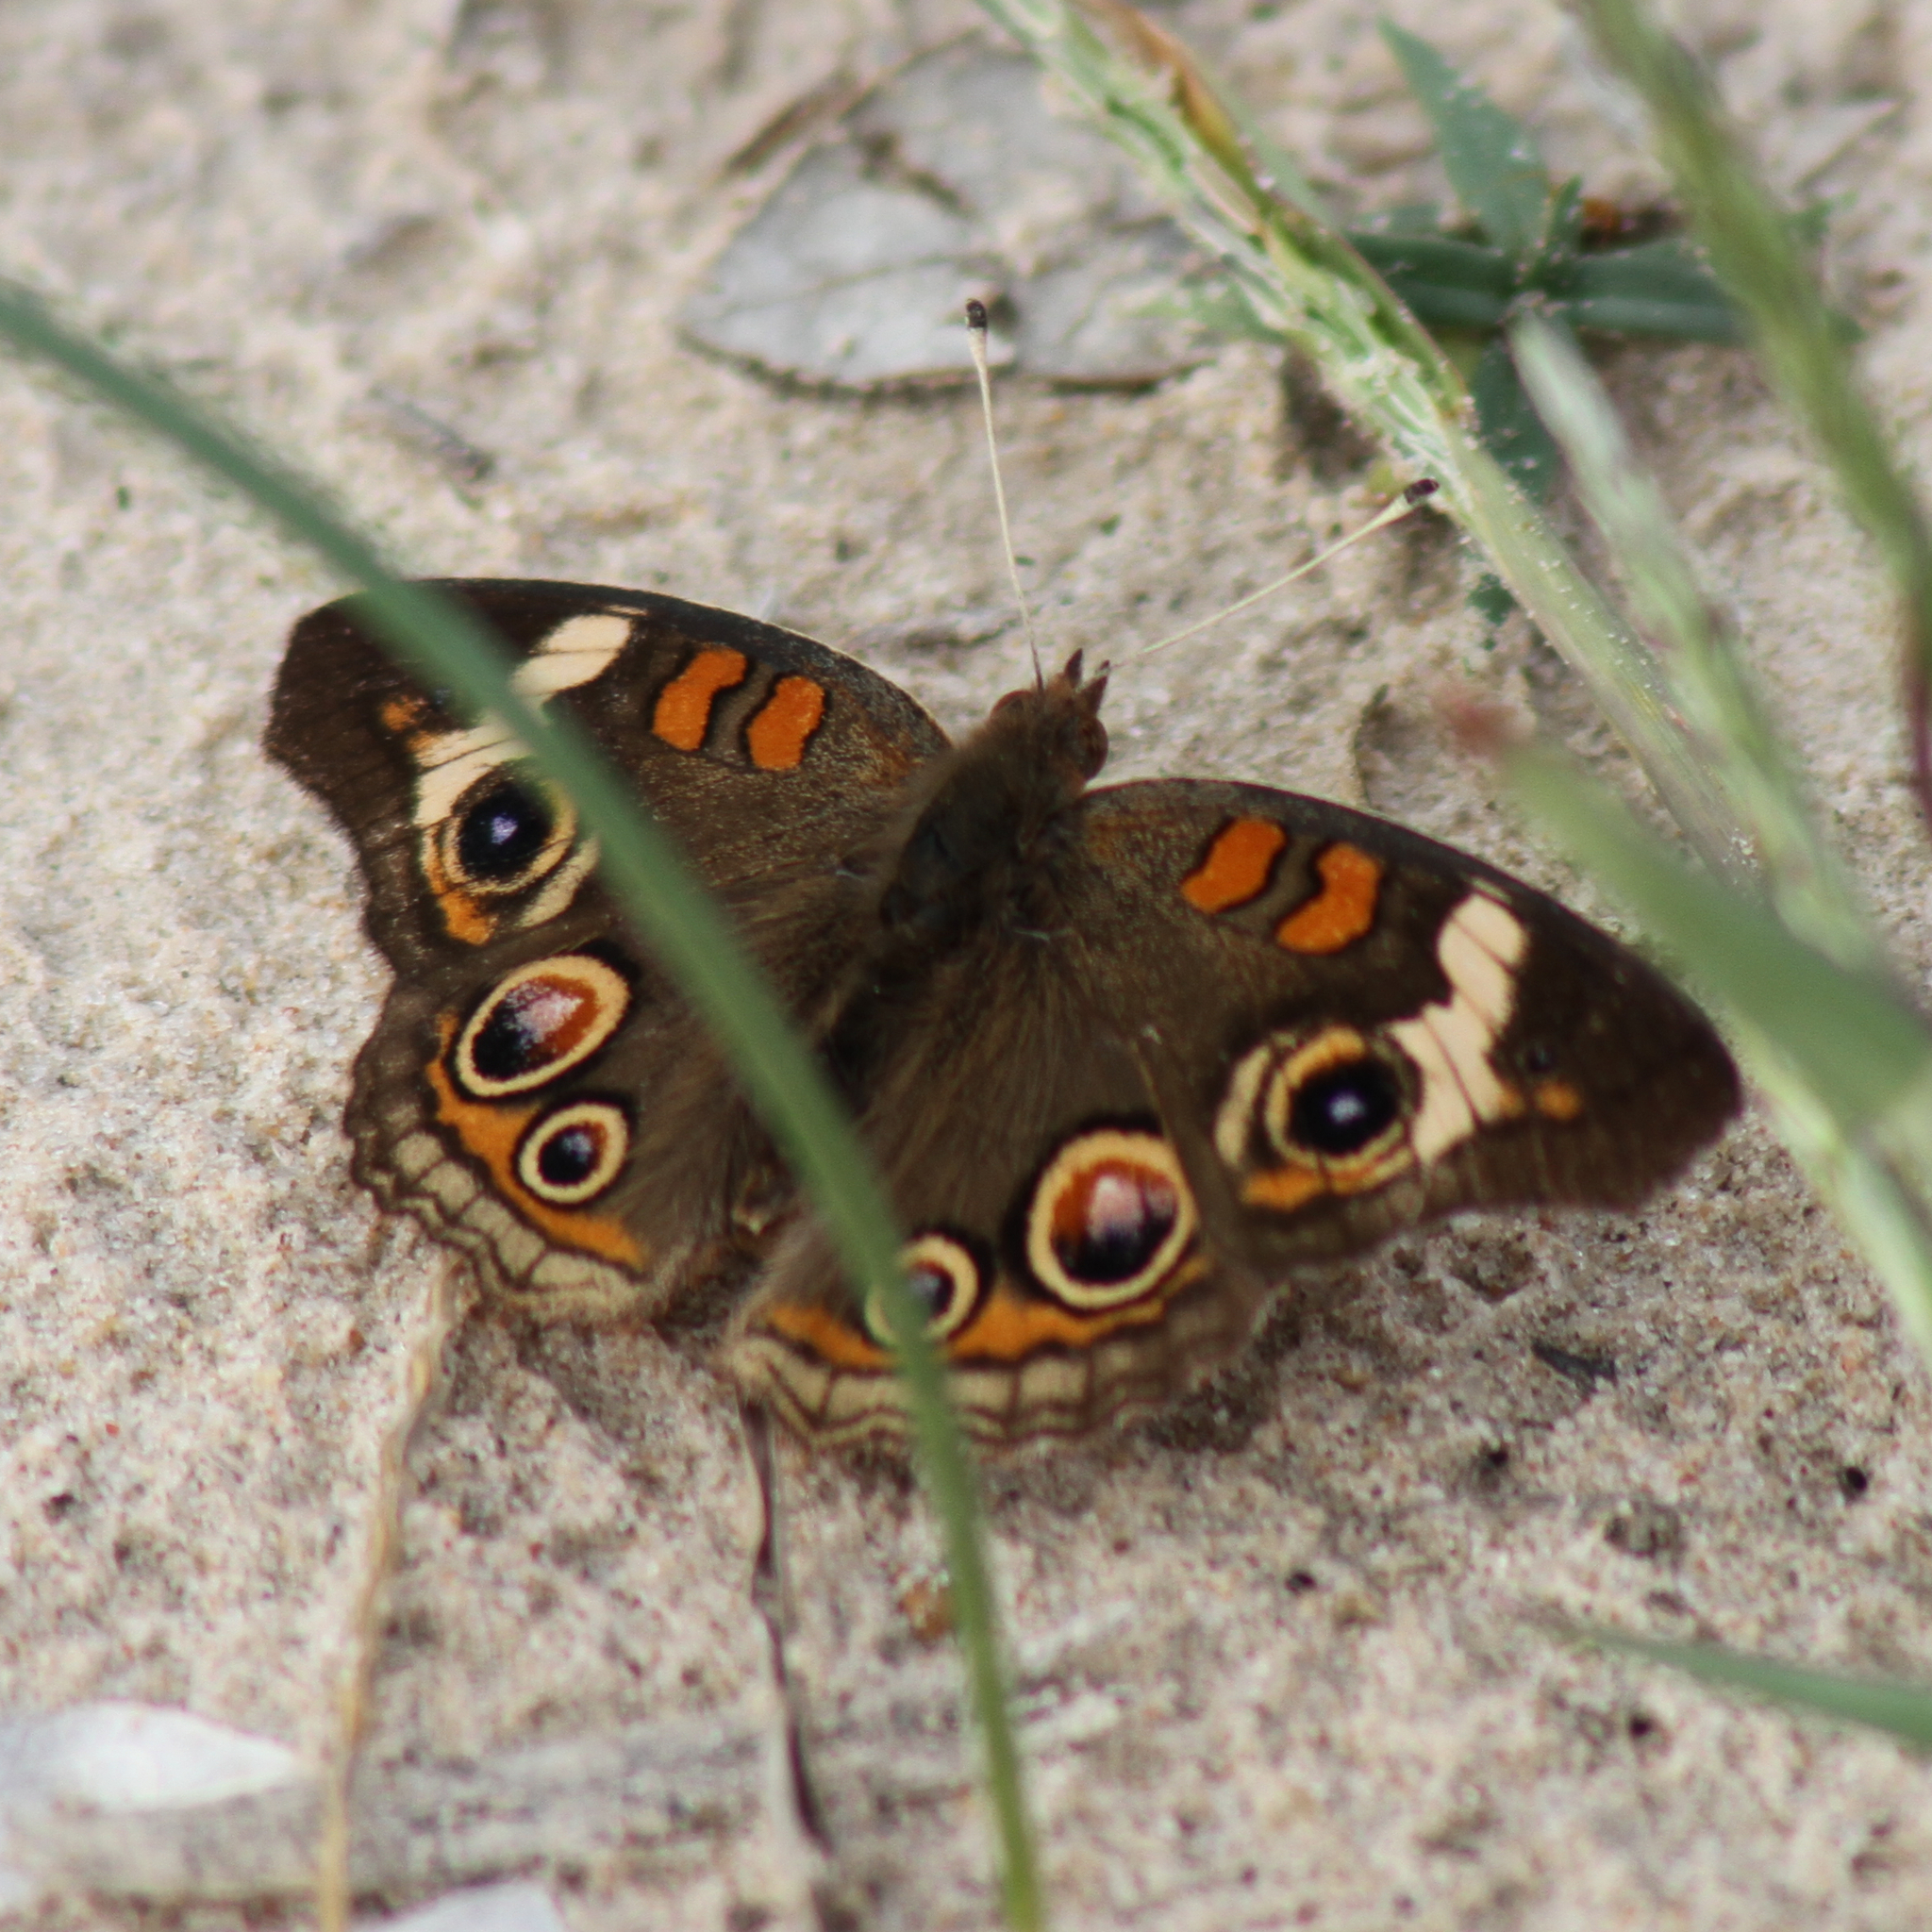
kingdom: Animalia
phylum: Arthropoda
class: Insecta
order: Lepidoptera
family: Nymphalidae
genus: Junonia
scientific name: Junonia coenia
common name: Common buckeye
